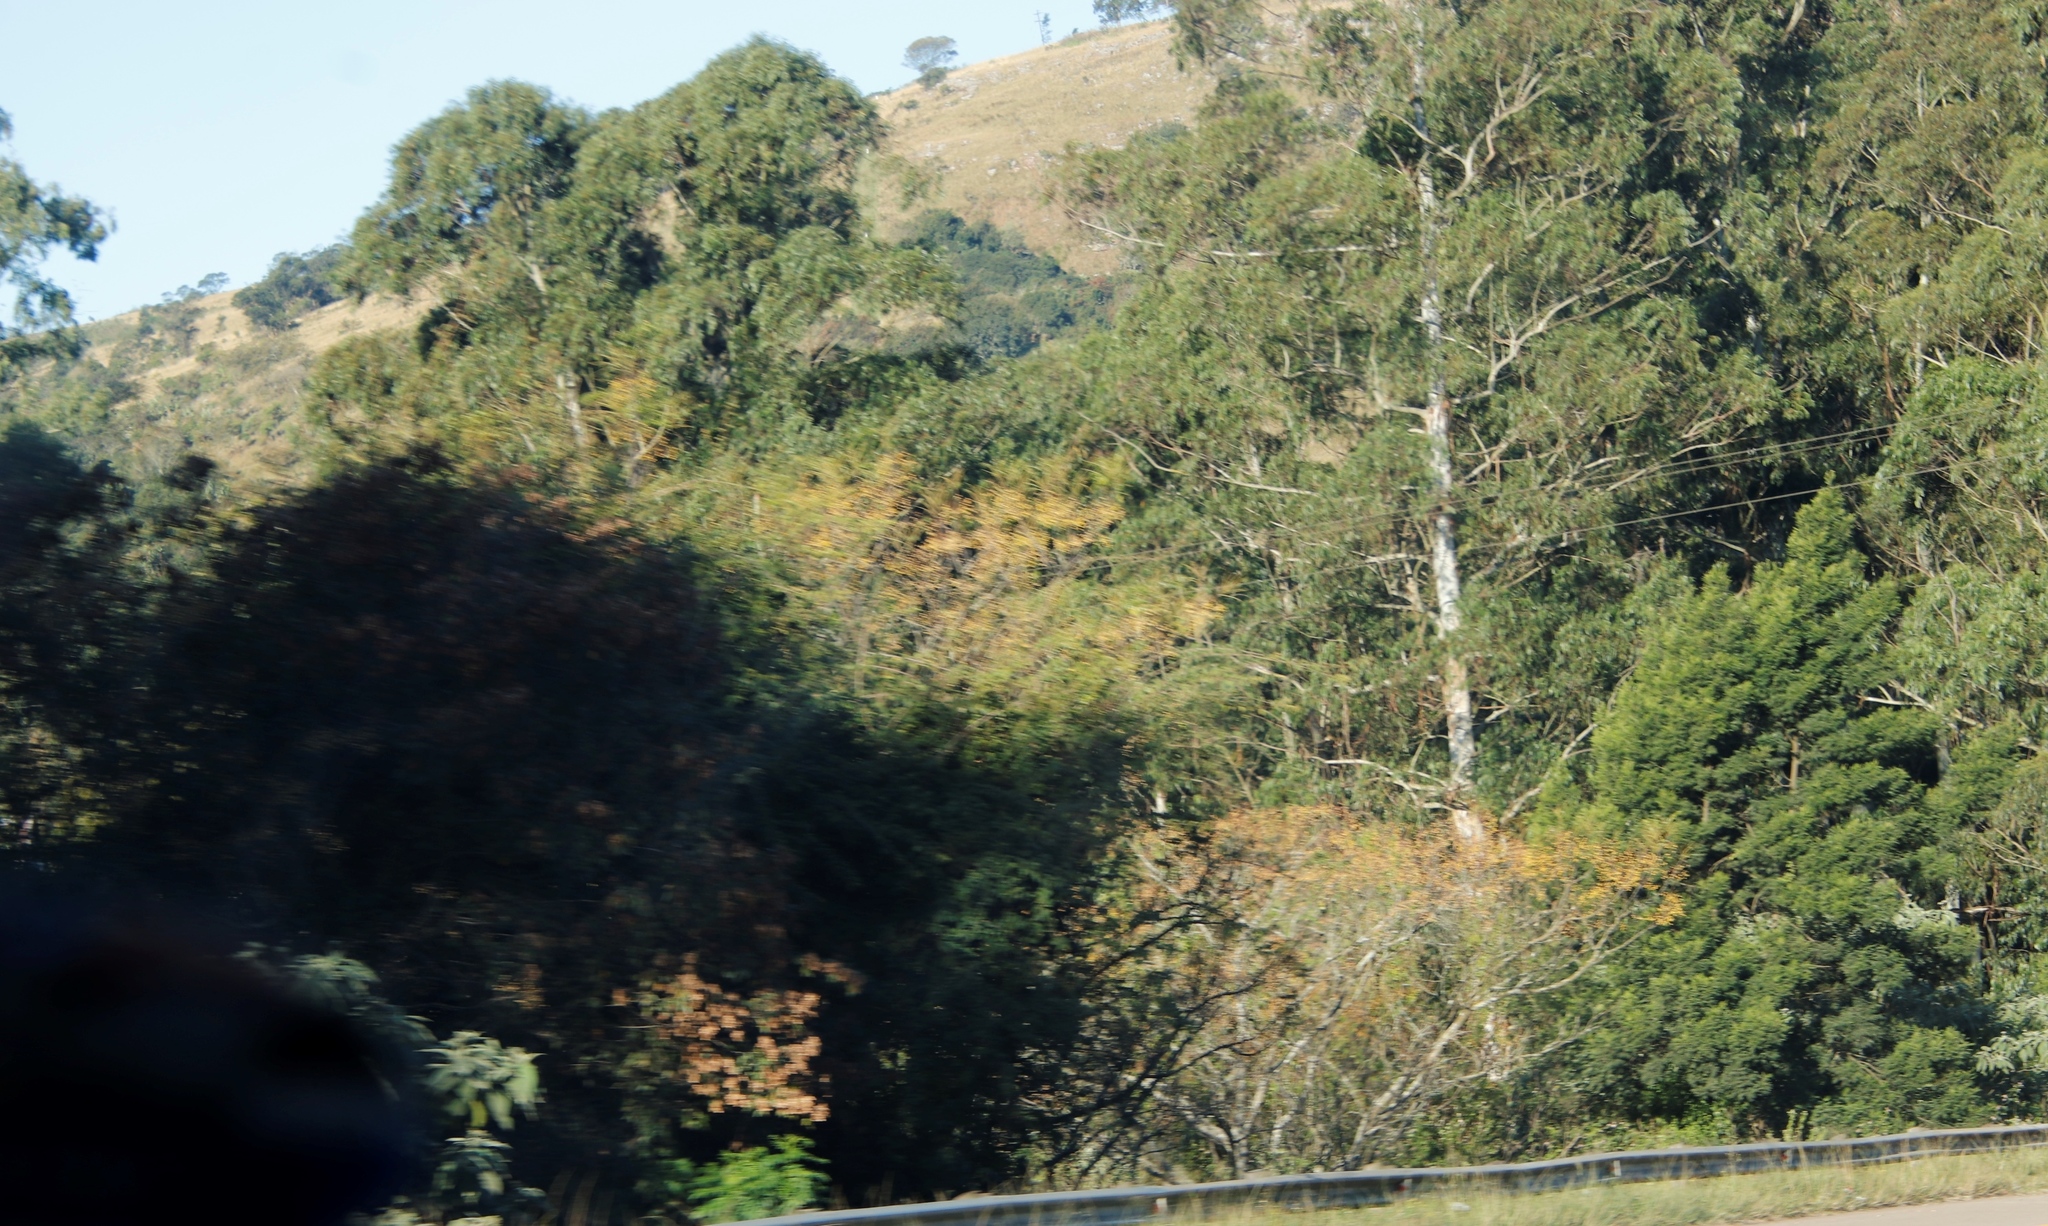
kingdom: Plantae
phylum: Tracheophyta
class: Magnoliopsida
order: Sapindales
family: Meliaceae
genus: Melia
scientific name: Melia azedarach
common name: Chinaberrytree
